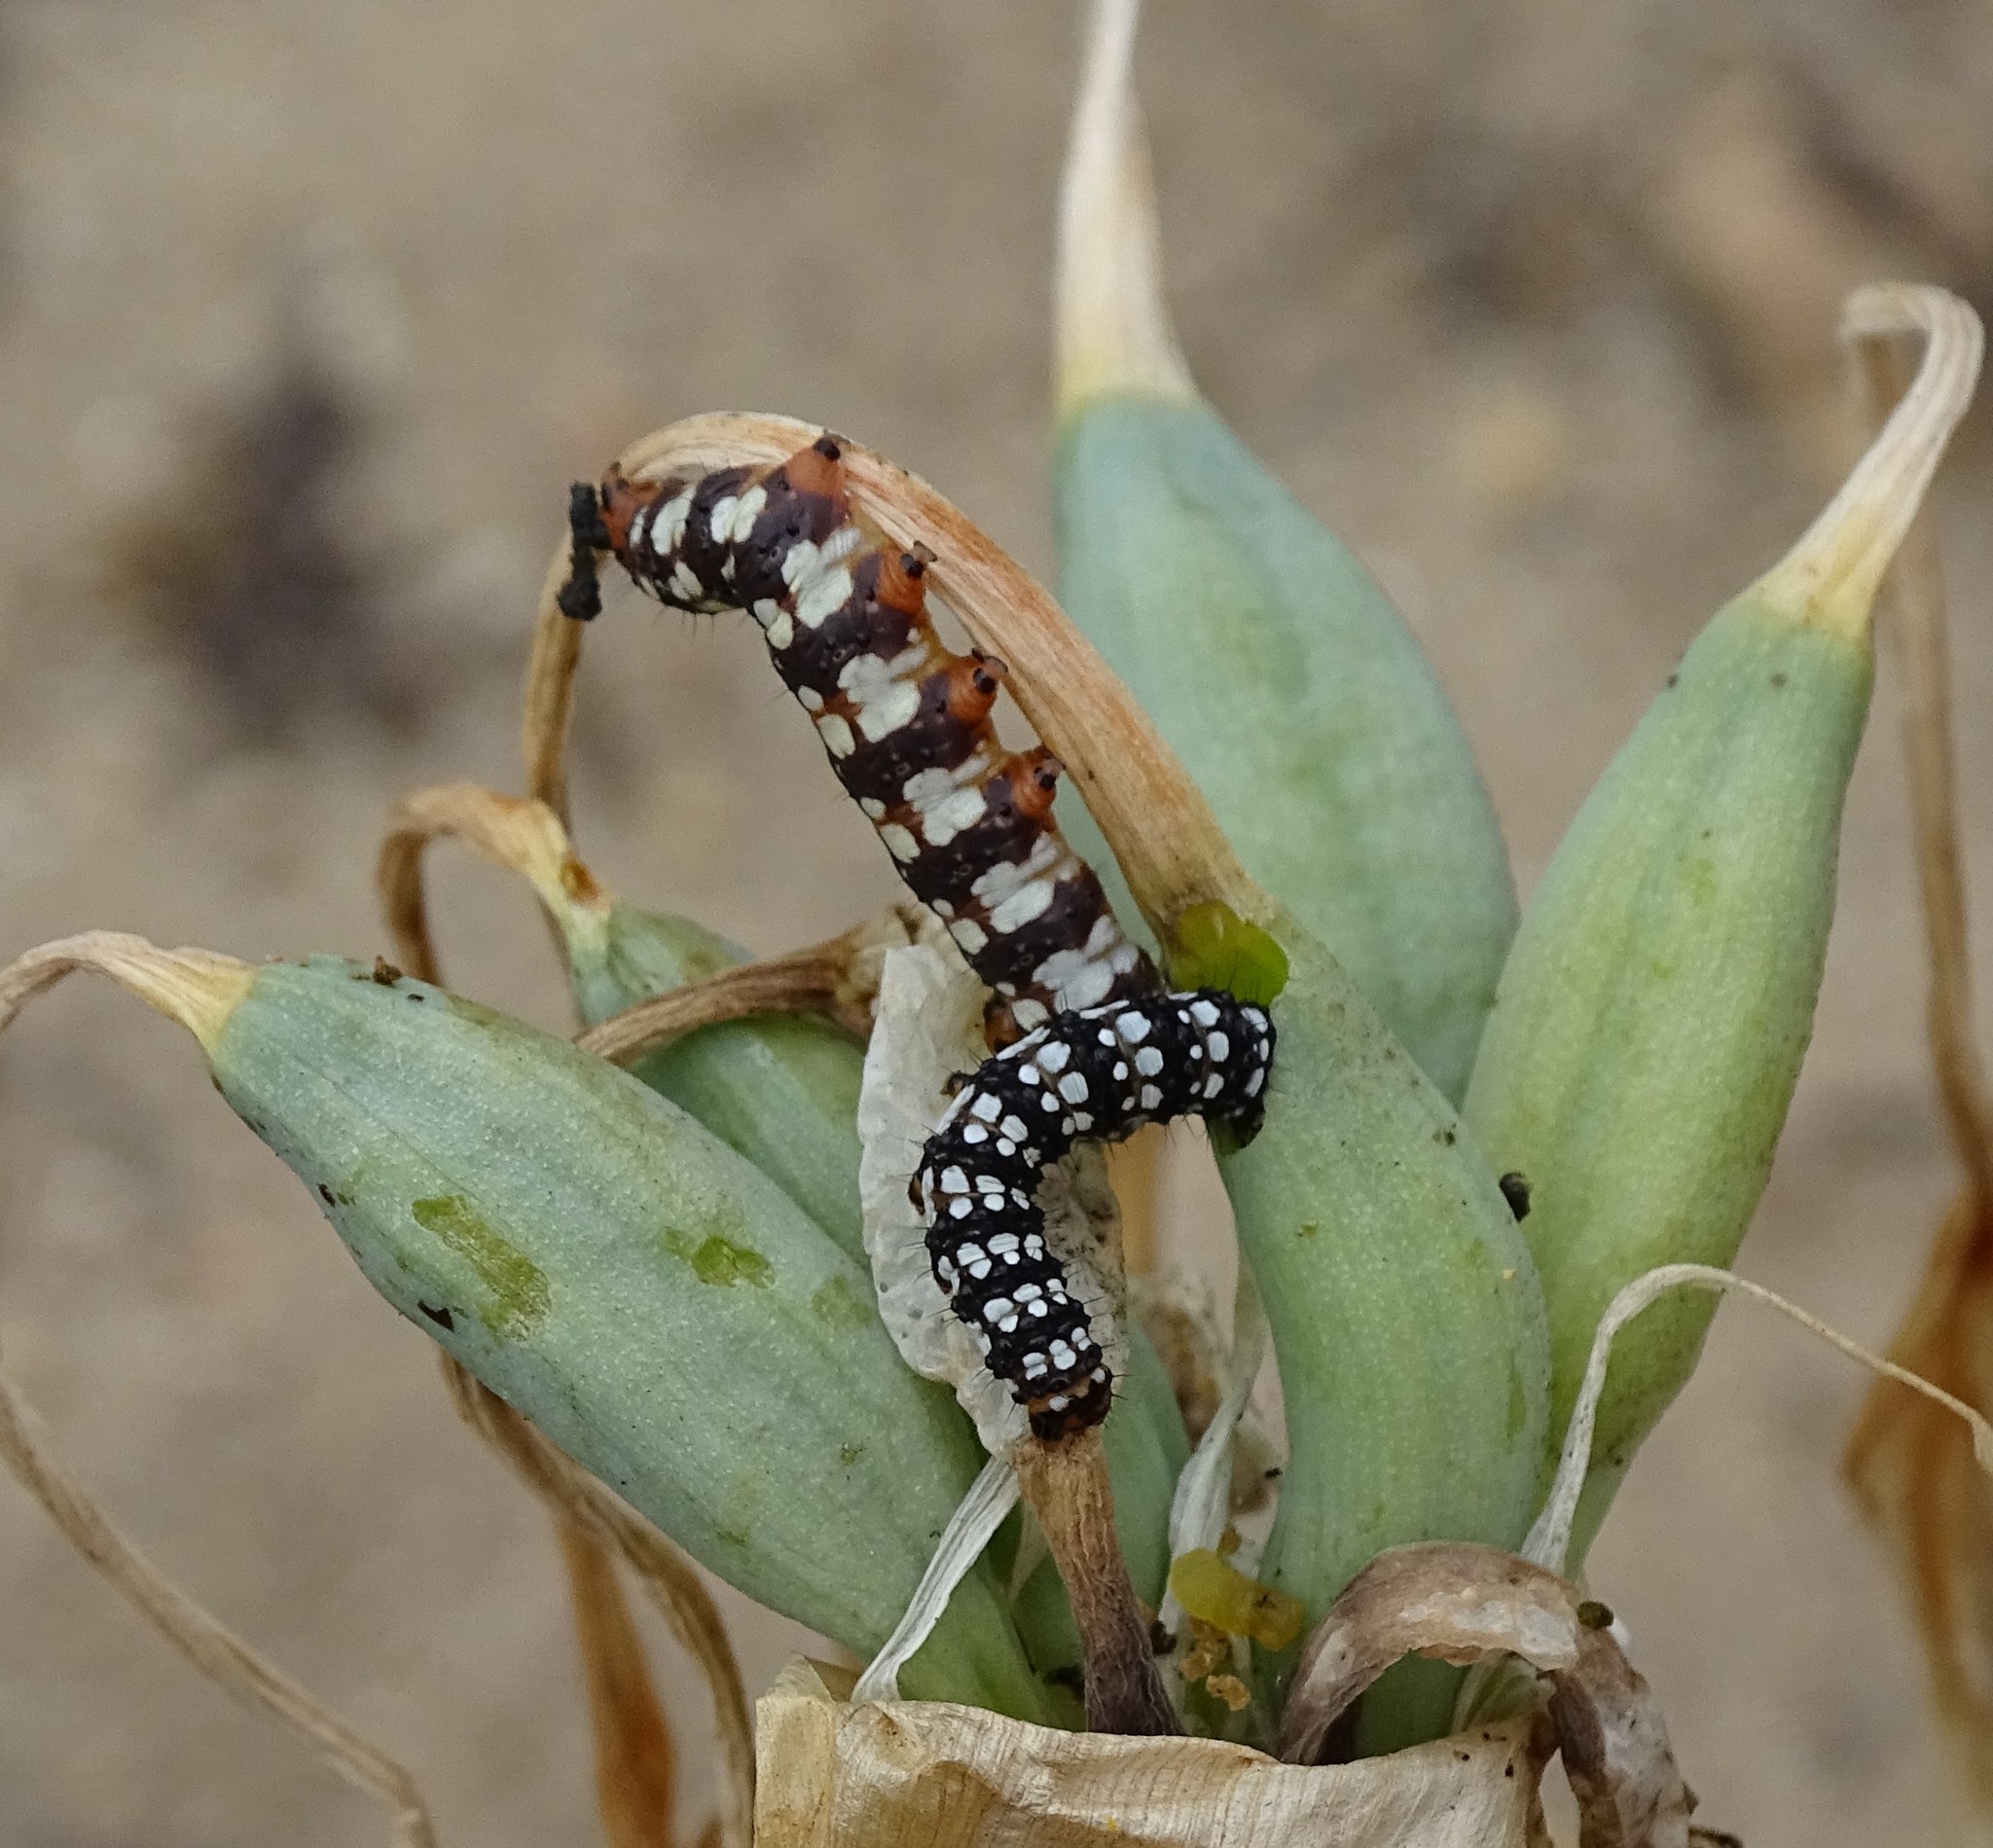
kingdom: Animalia
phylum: Arthropoda
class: Insecta
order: Lepidoptera
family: Noctuidae
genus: Brithys
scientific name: Brithys crini
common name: Kew arches
